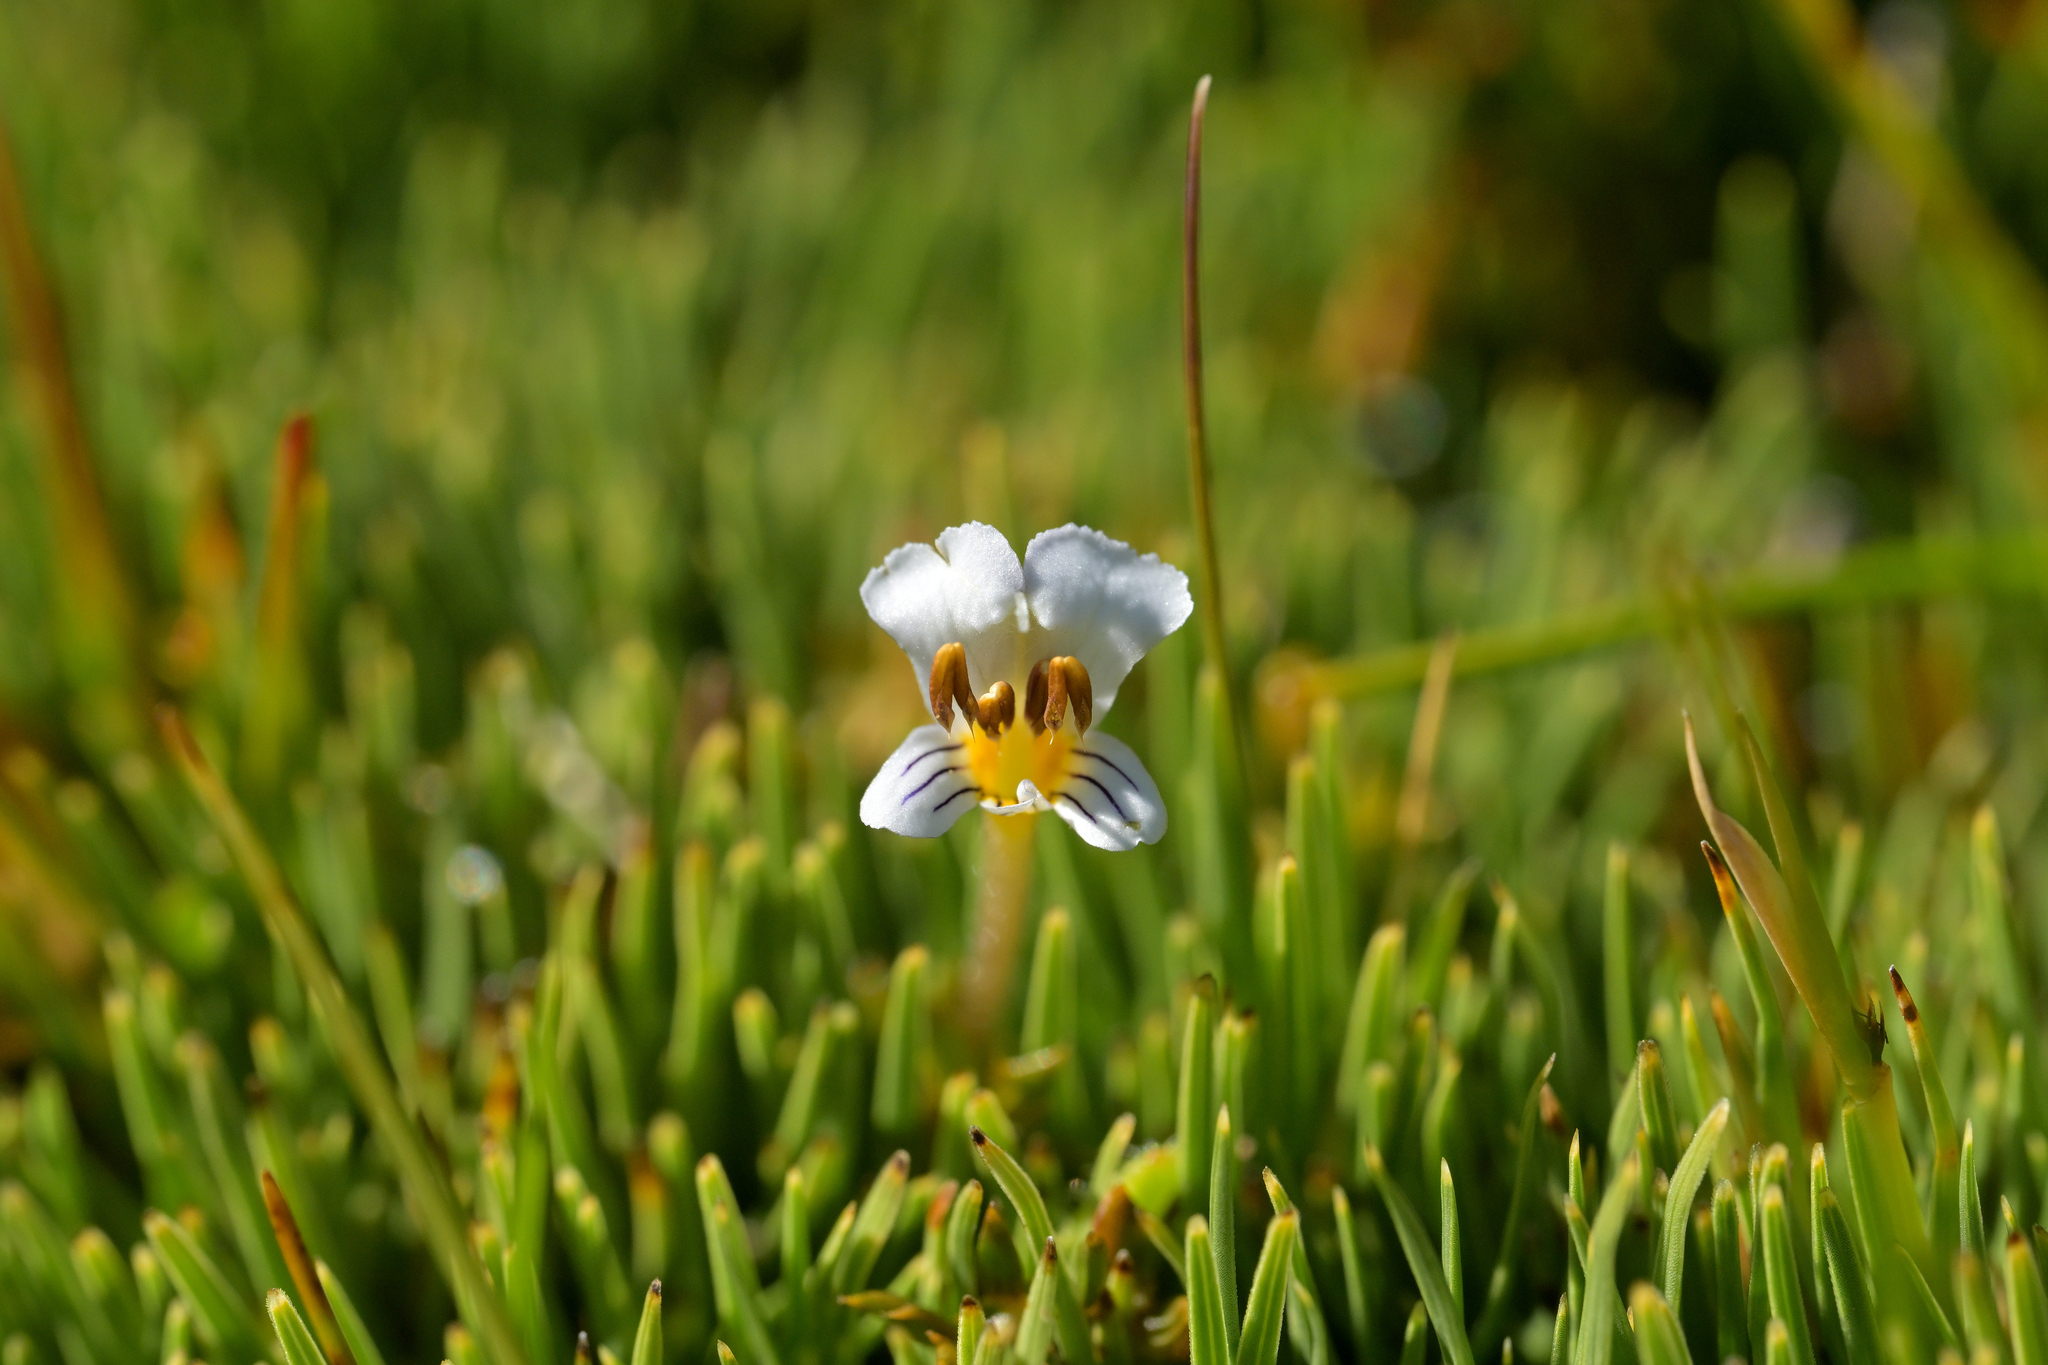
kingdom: Plantae
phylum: Tracheophyta
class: Magnoliopsida
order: Lamiales
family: Orobanchaceae
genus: Euphrasia
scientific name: Euphrasia disperma
